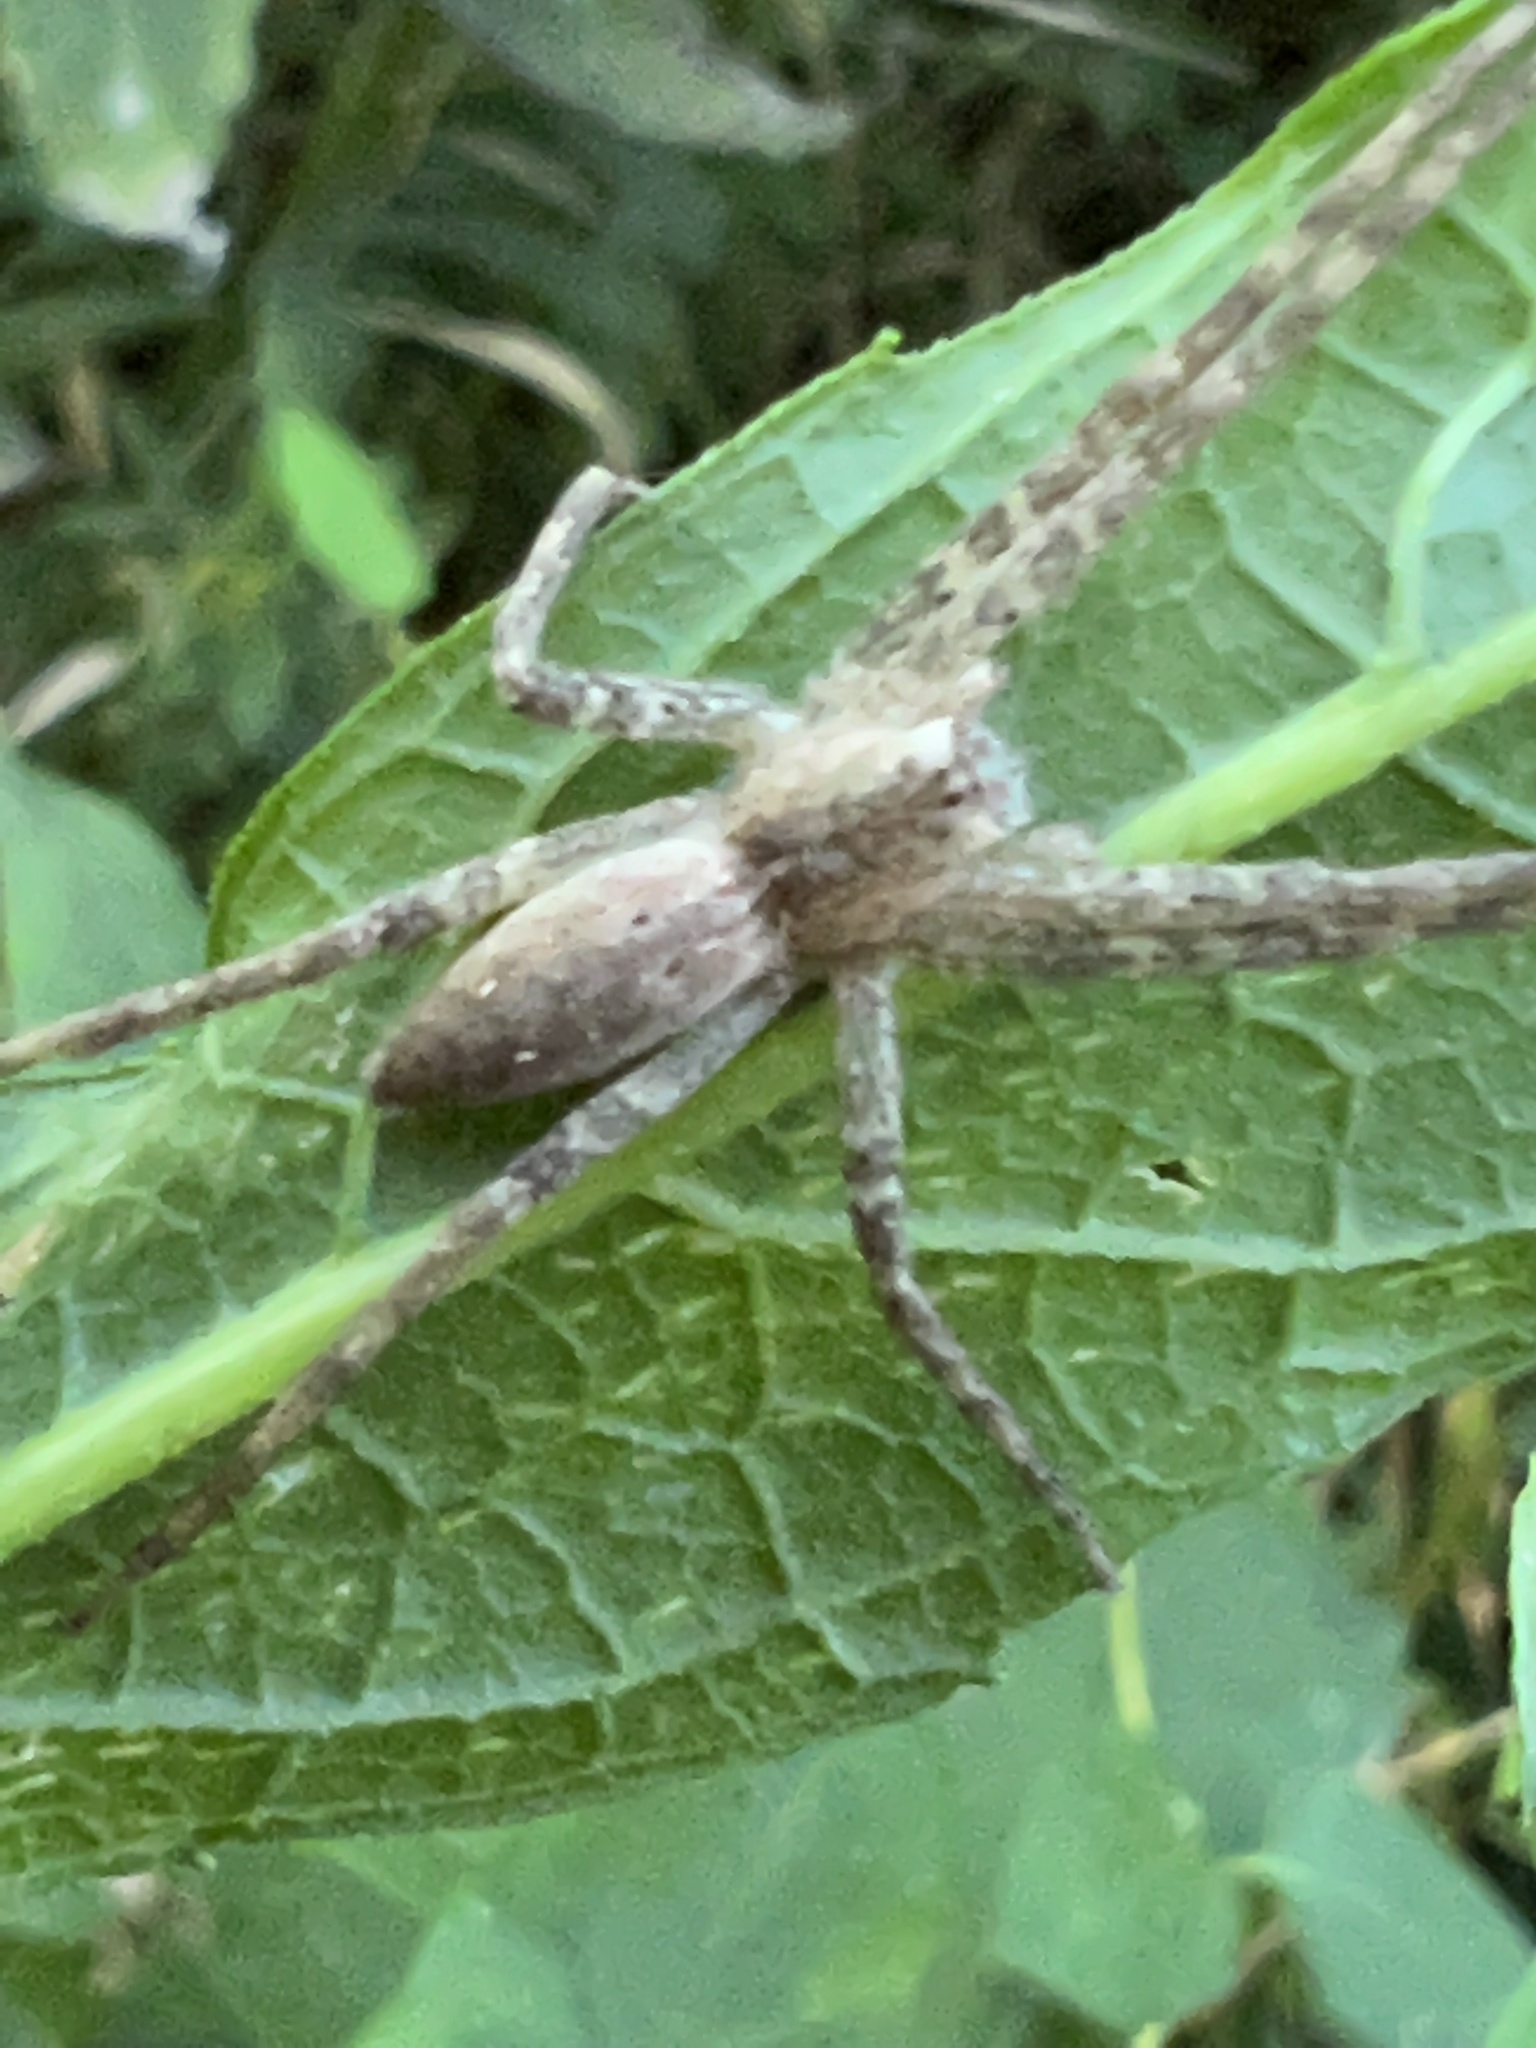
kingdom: Animalia
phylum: Arthropoda
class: Arachnida
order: Araneae
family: Pisauridae
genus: Pisaurina
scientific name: Pisaurina mira
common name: American nursery web spider
